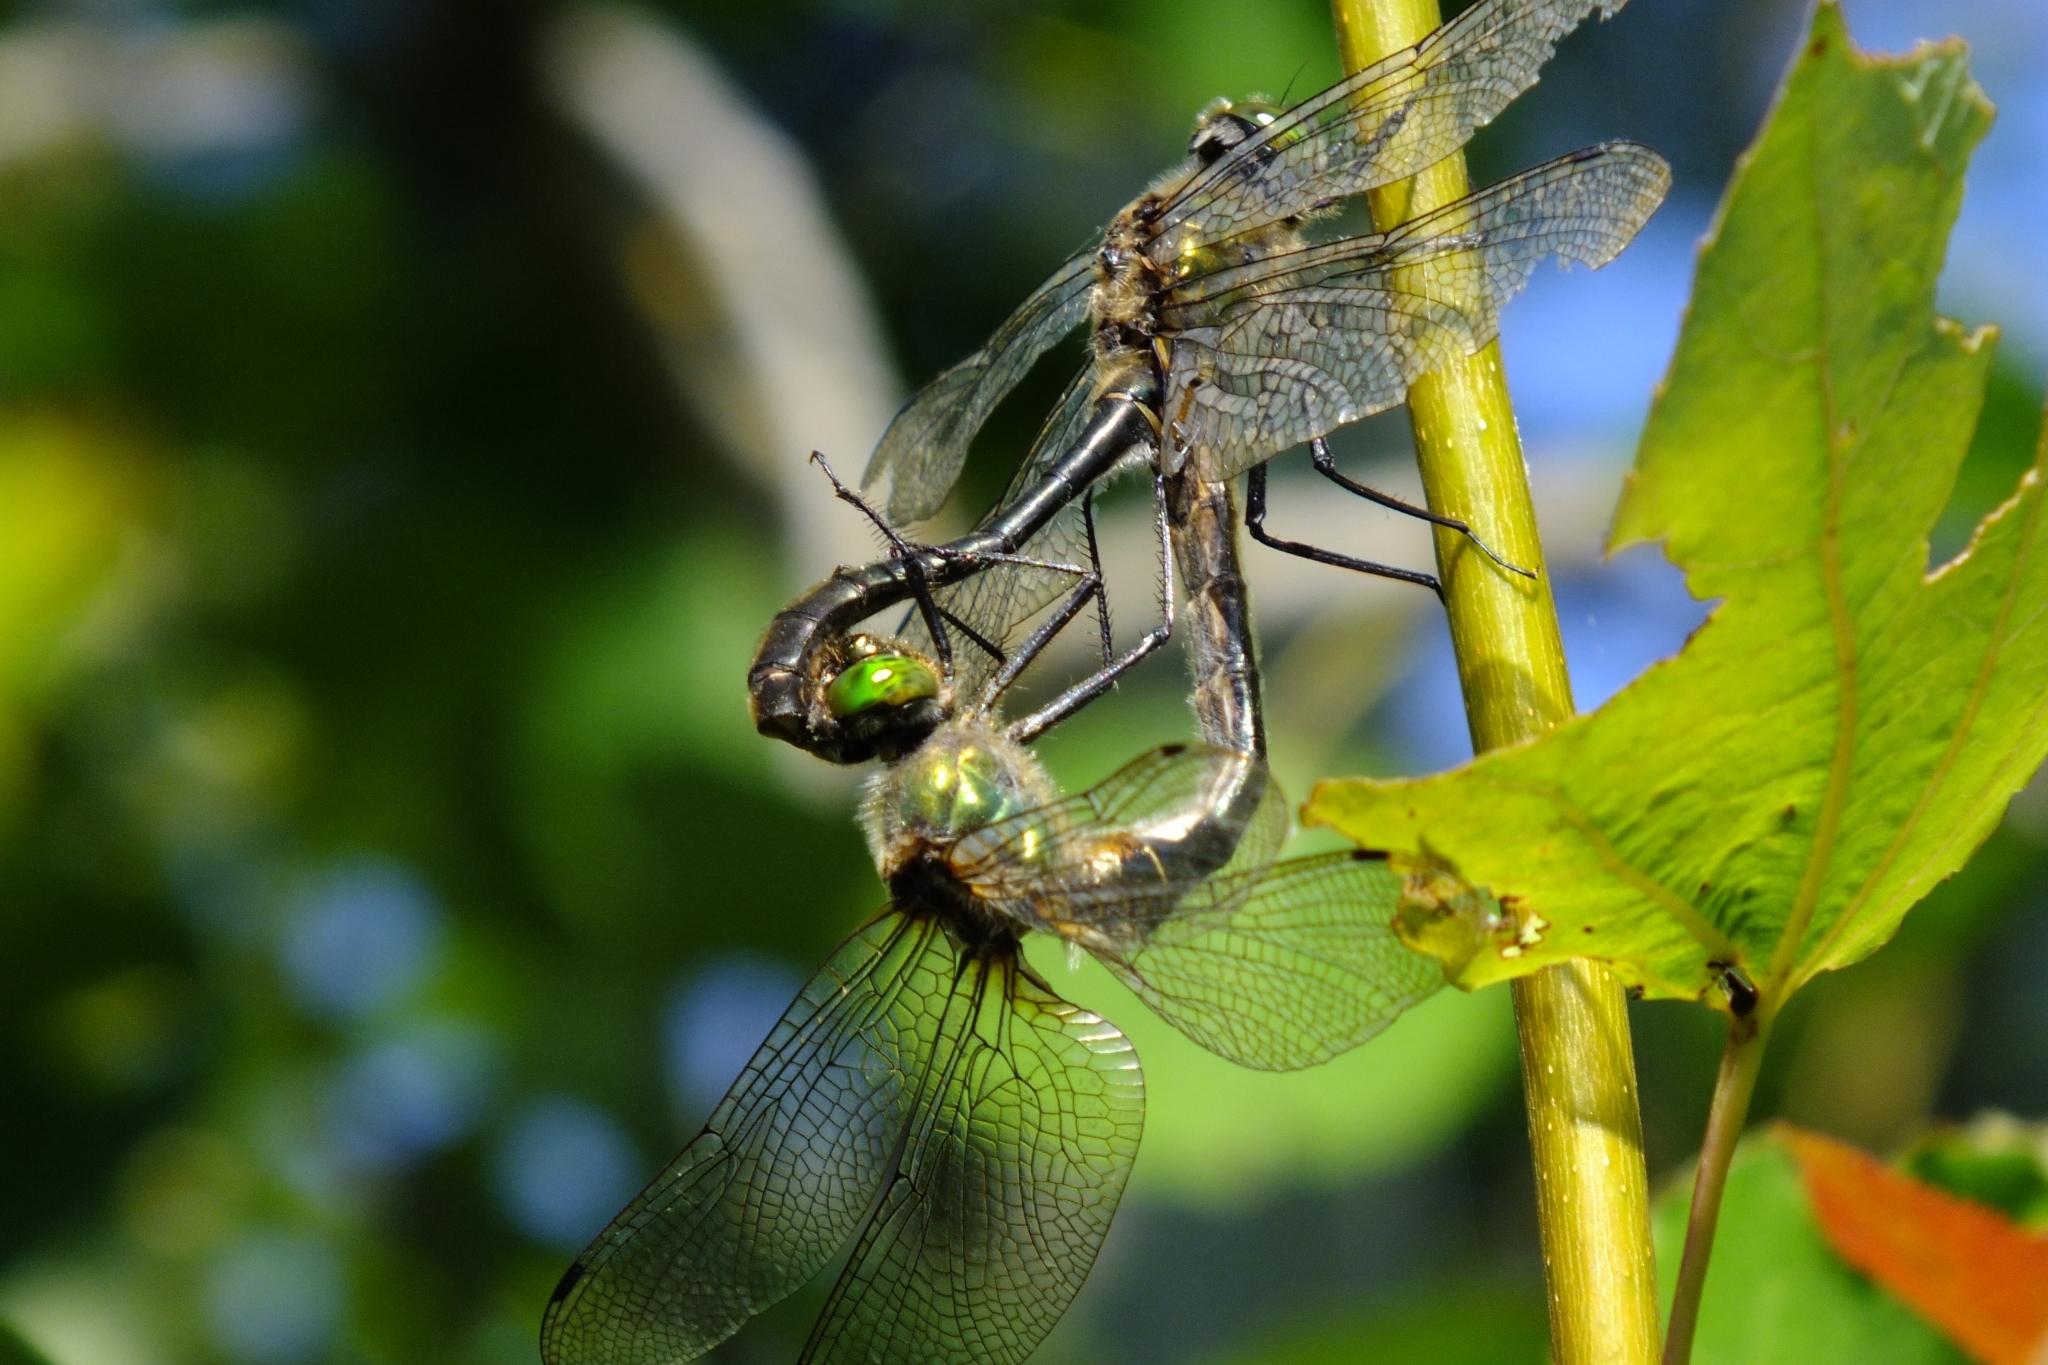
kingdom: Animalia
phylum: Arthropoda
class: Insecta
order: Odonata
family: Corduliidae
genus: Cordulia
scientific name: Cordulia aenea
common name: Downy emerald
